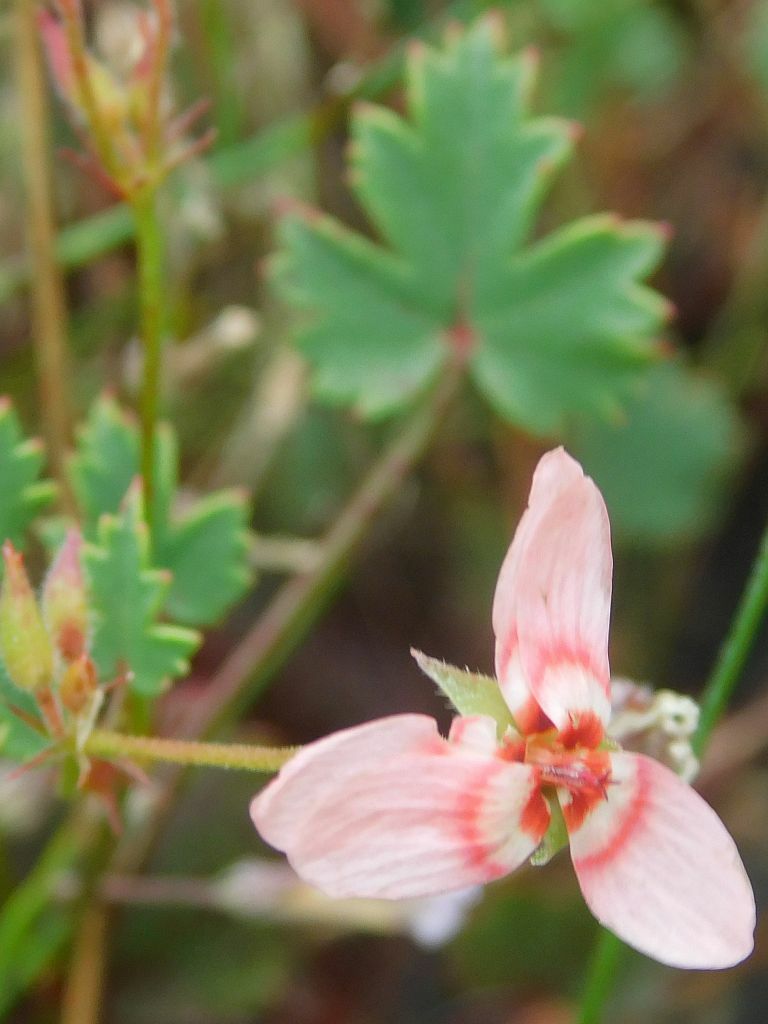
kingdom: Plantae
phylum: Tracheophyta
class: Magnoliopsida
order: Geraniales
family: Geraniaceae
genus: Pelargonium
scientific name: Pelargonium incarnatum
